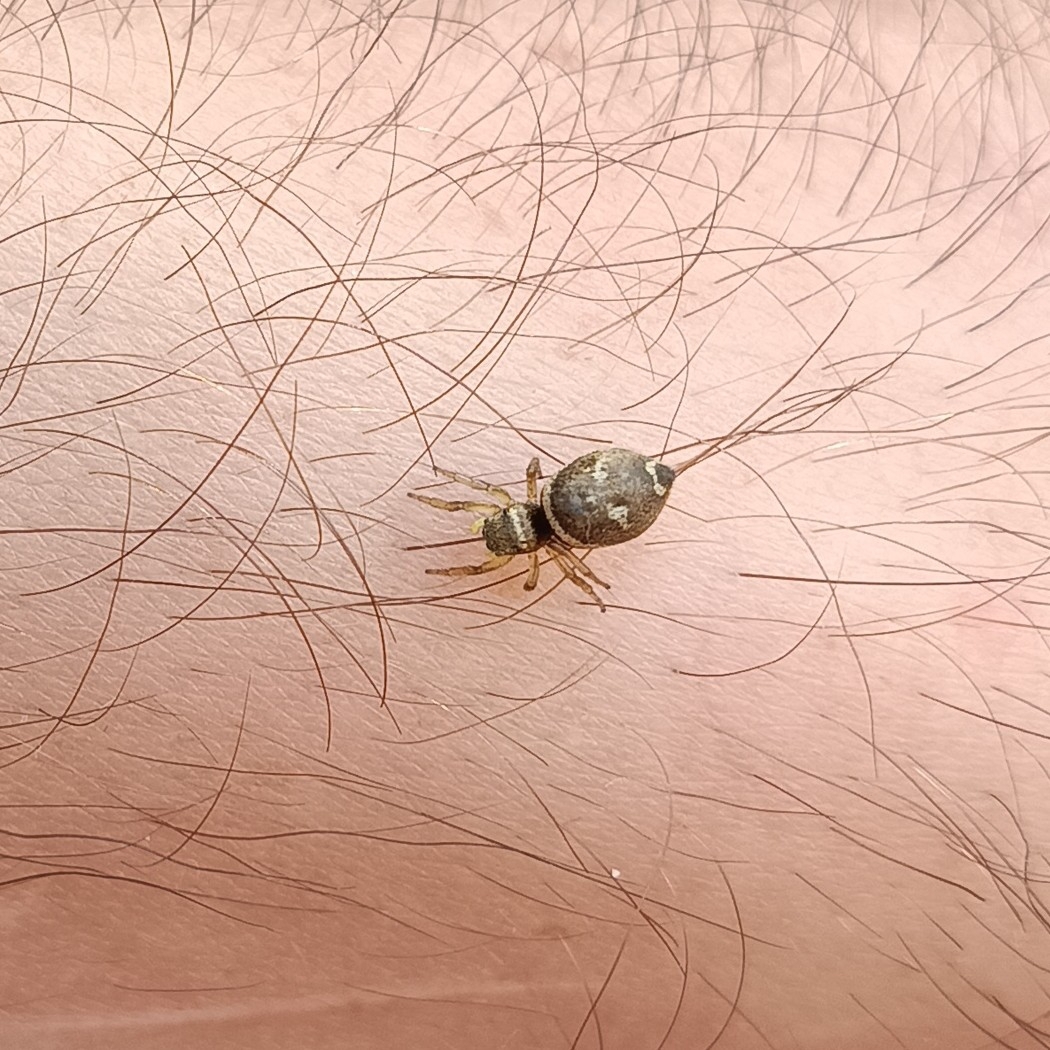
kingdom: Animalia
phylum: Arthropoda
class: Arachnida
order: Araneae
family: Salticidae
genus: Heliophanus
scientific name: Heliophanus tribulosus
